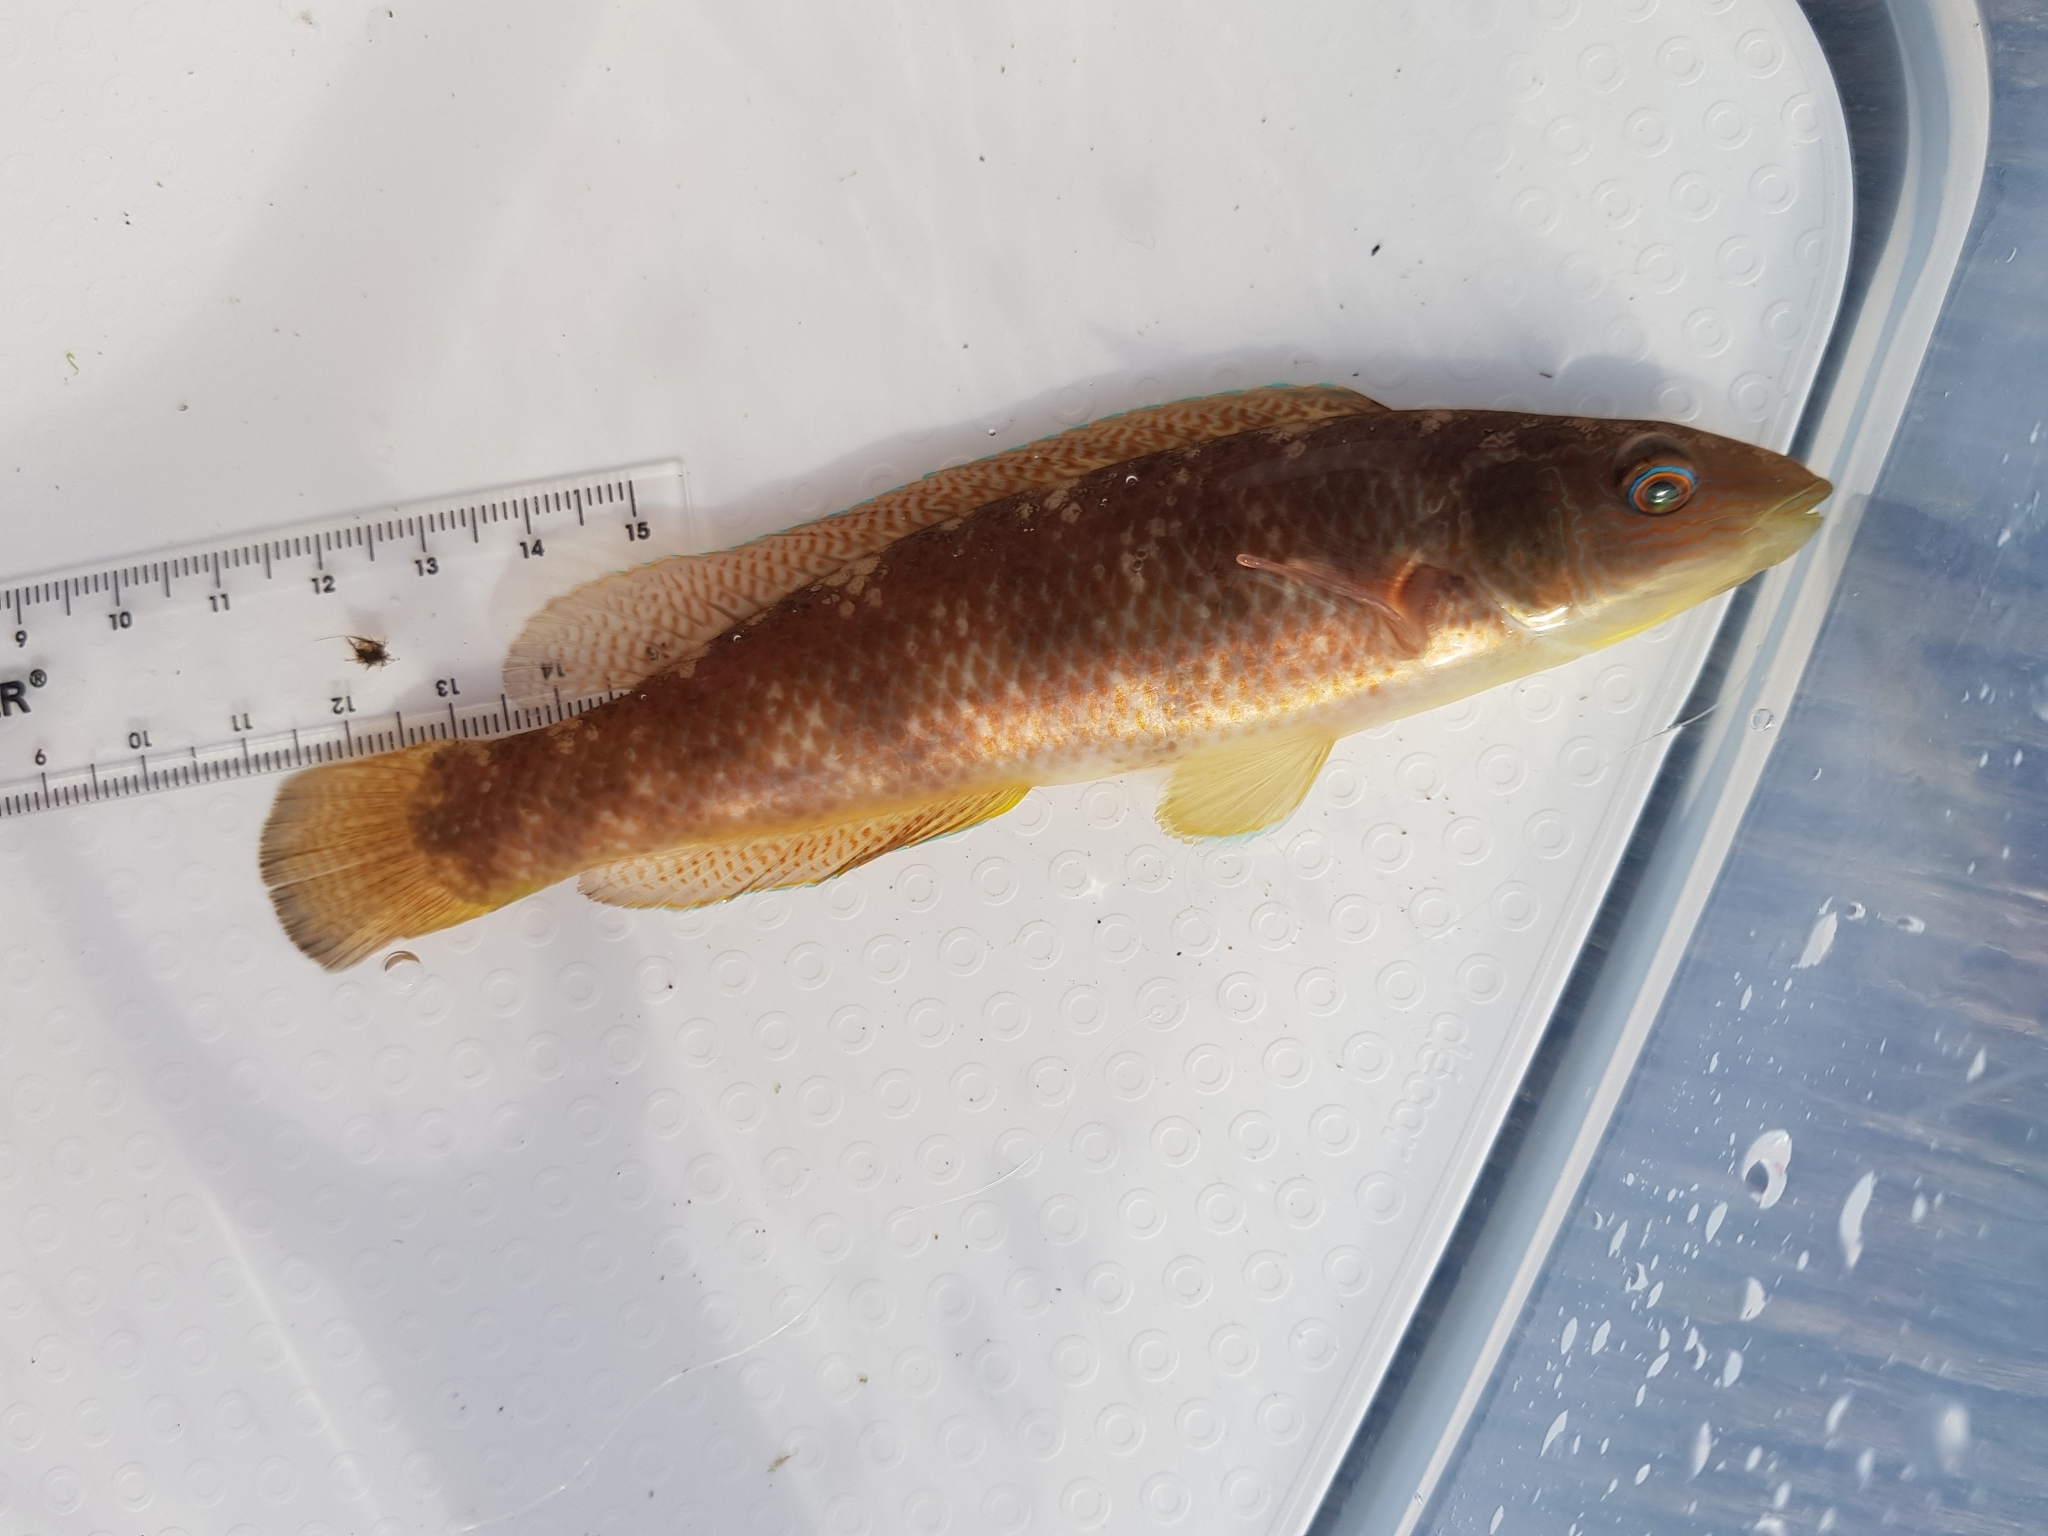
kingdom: Animalia
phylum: Chordata
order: Perciformes
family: Odacidae
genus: Neoodax
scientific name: Neoodax balteatus
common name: Ground mullet
